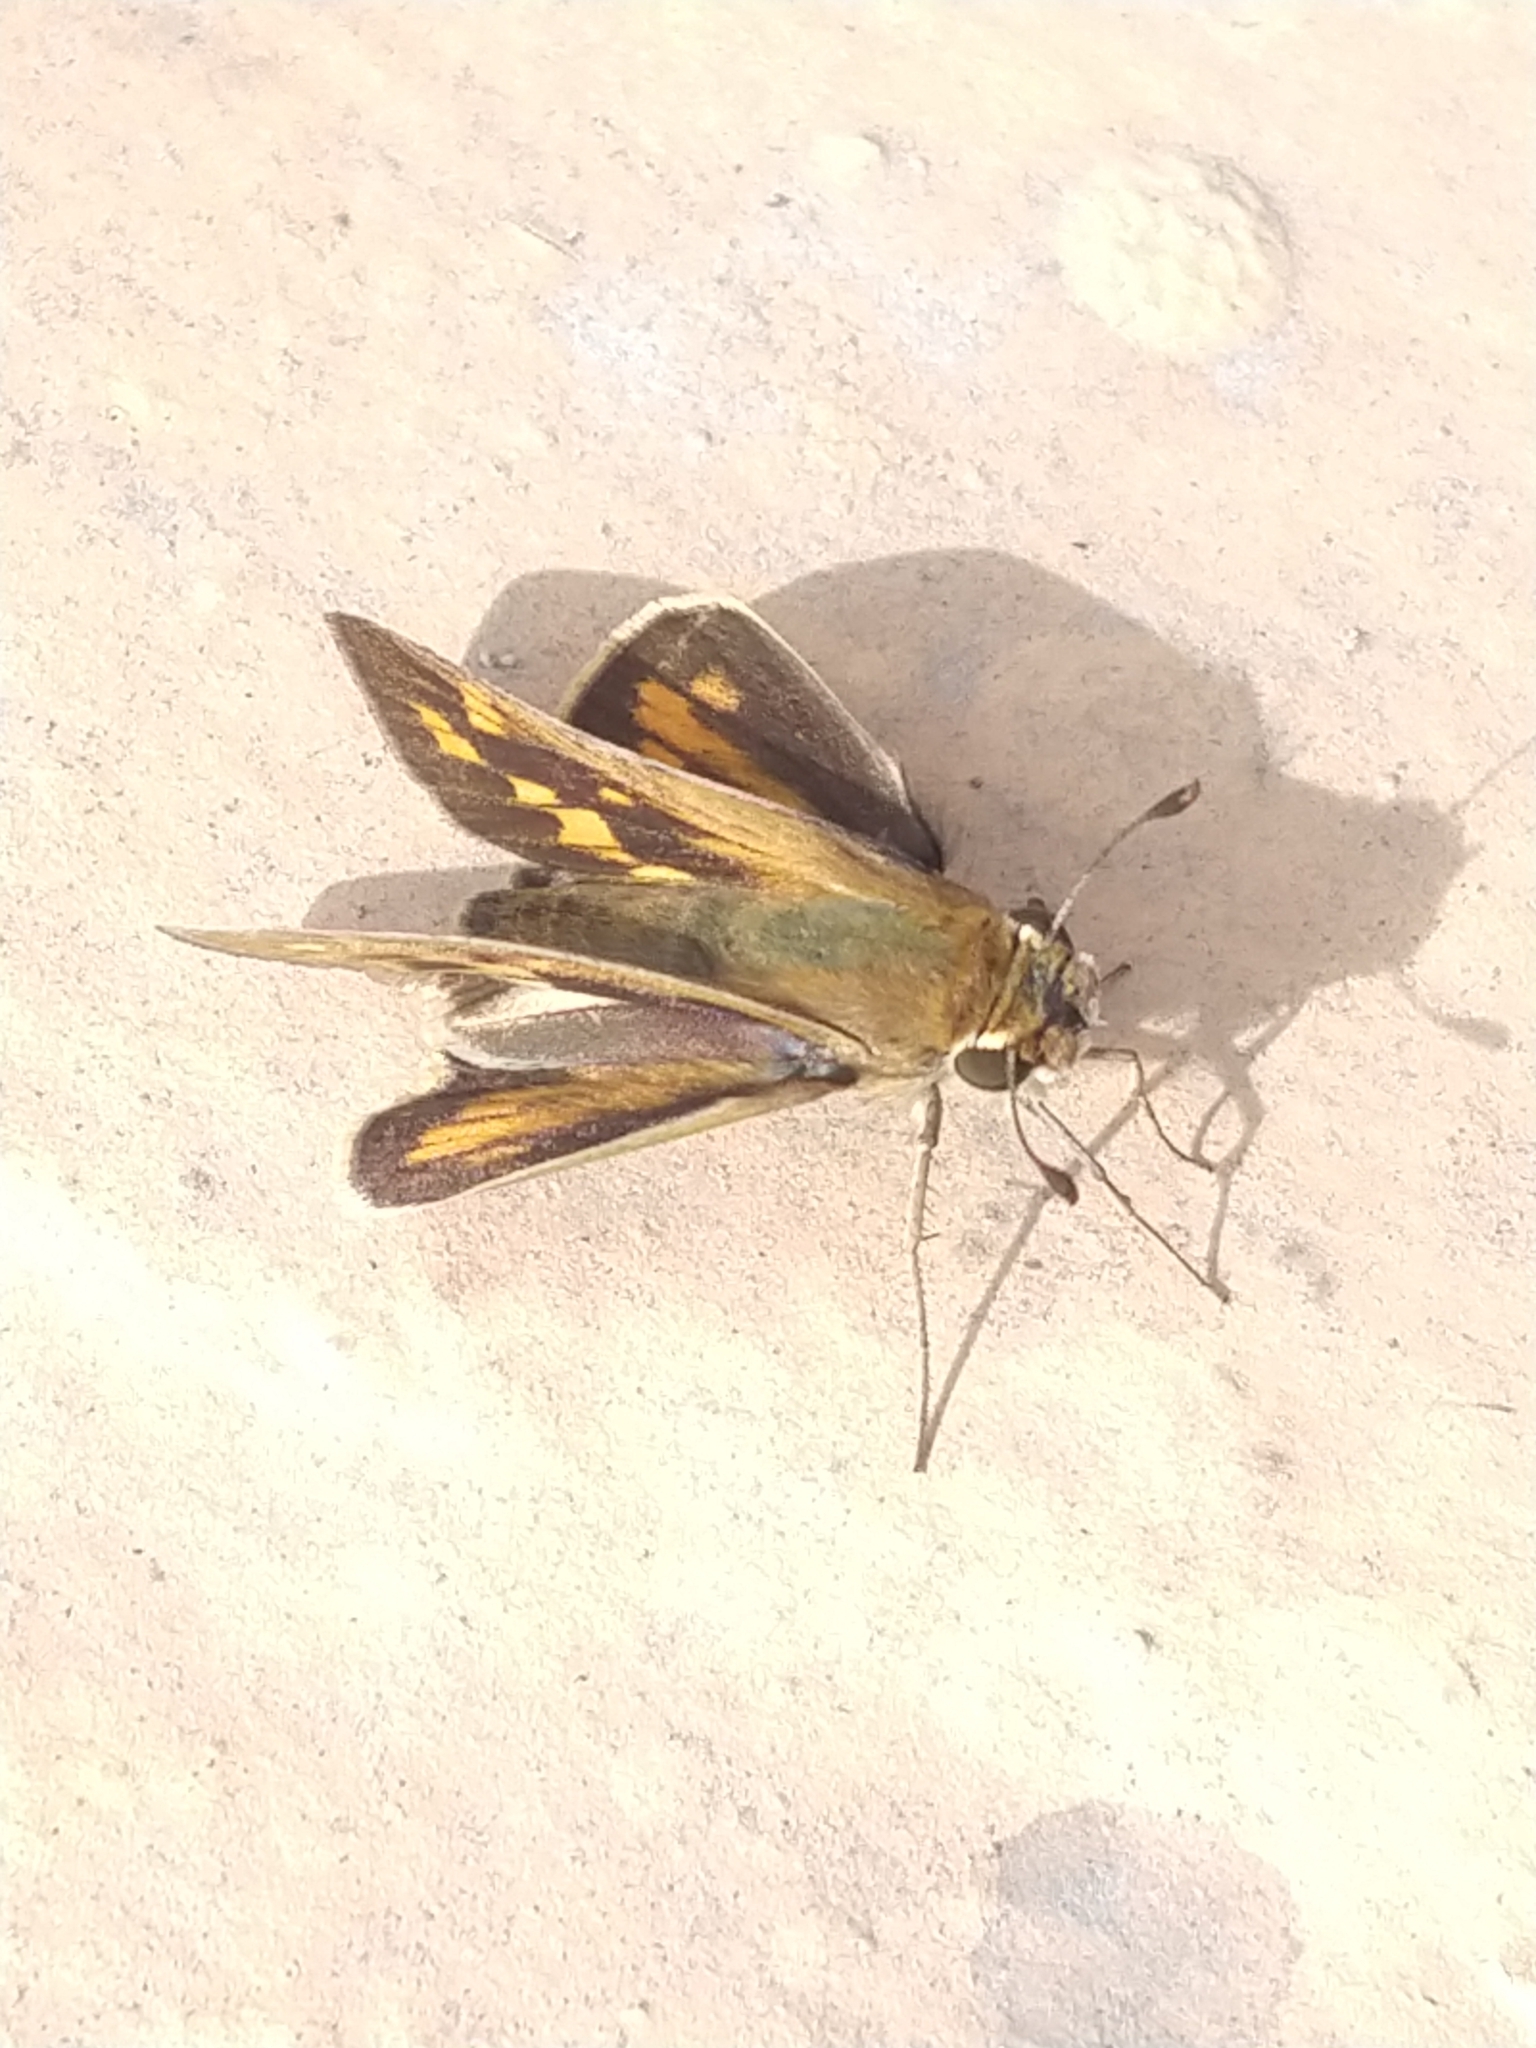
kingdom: Animalia
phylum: Arthropoda
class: Insecta
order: Lepidoptera
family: Hesperiidae
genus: Hylephila
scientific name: Hylephila phyleus
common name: Fiery skipper
